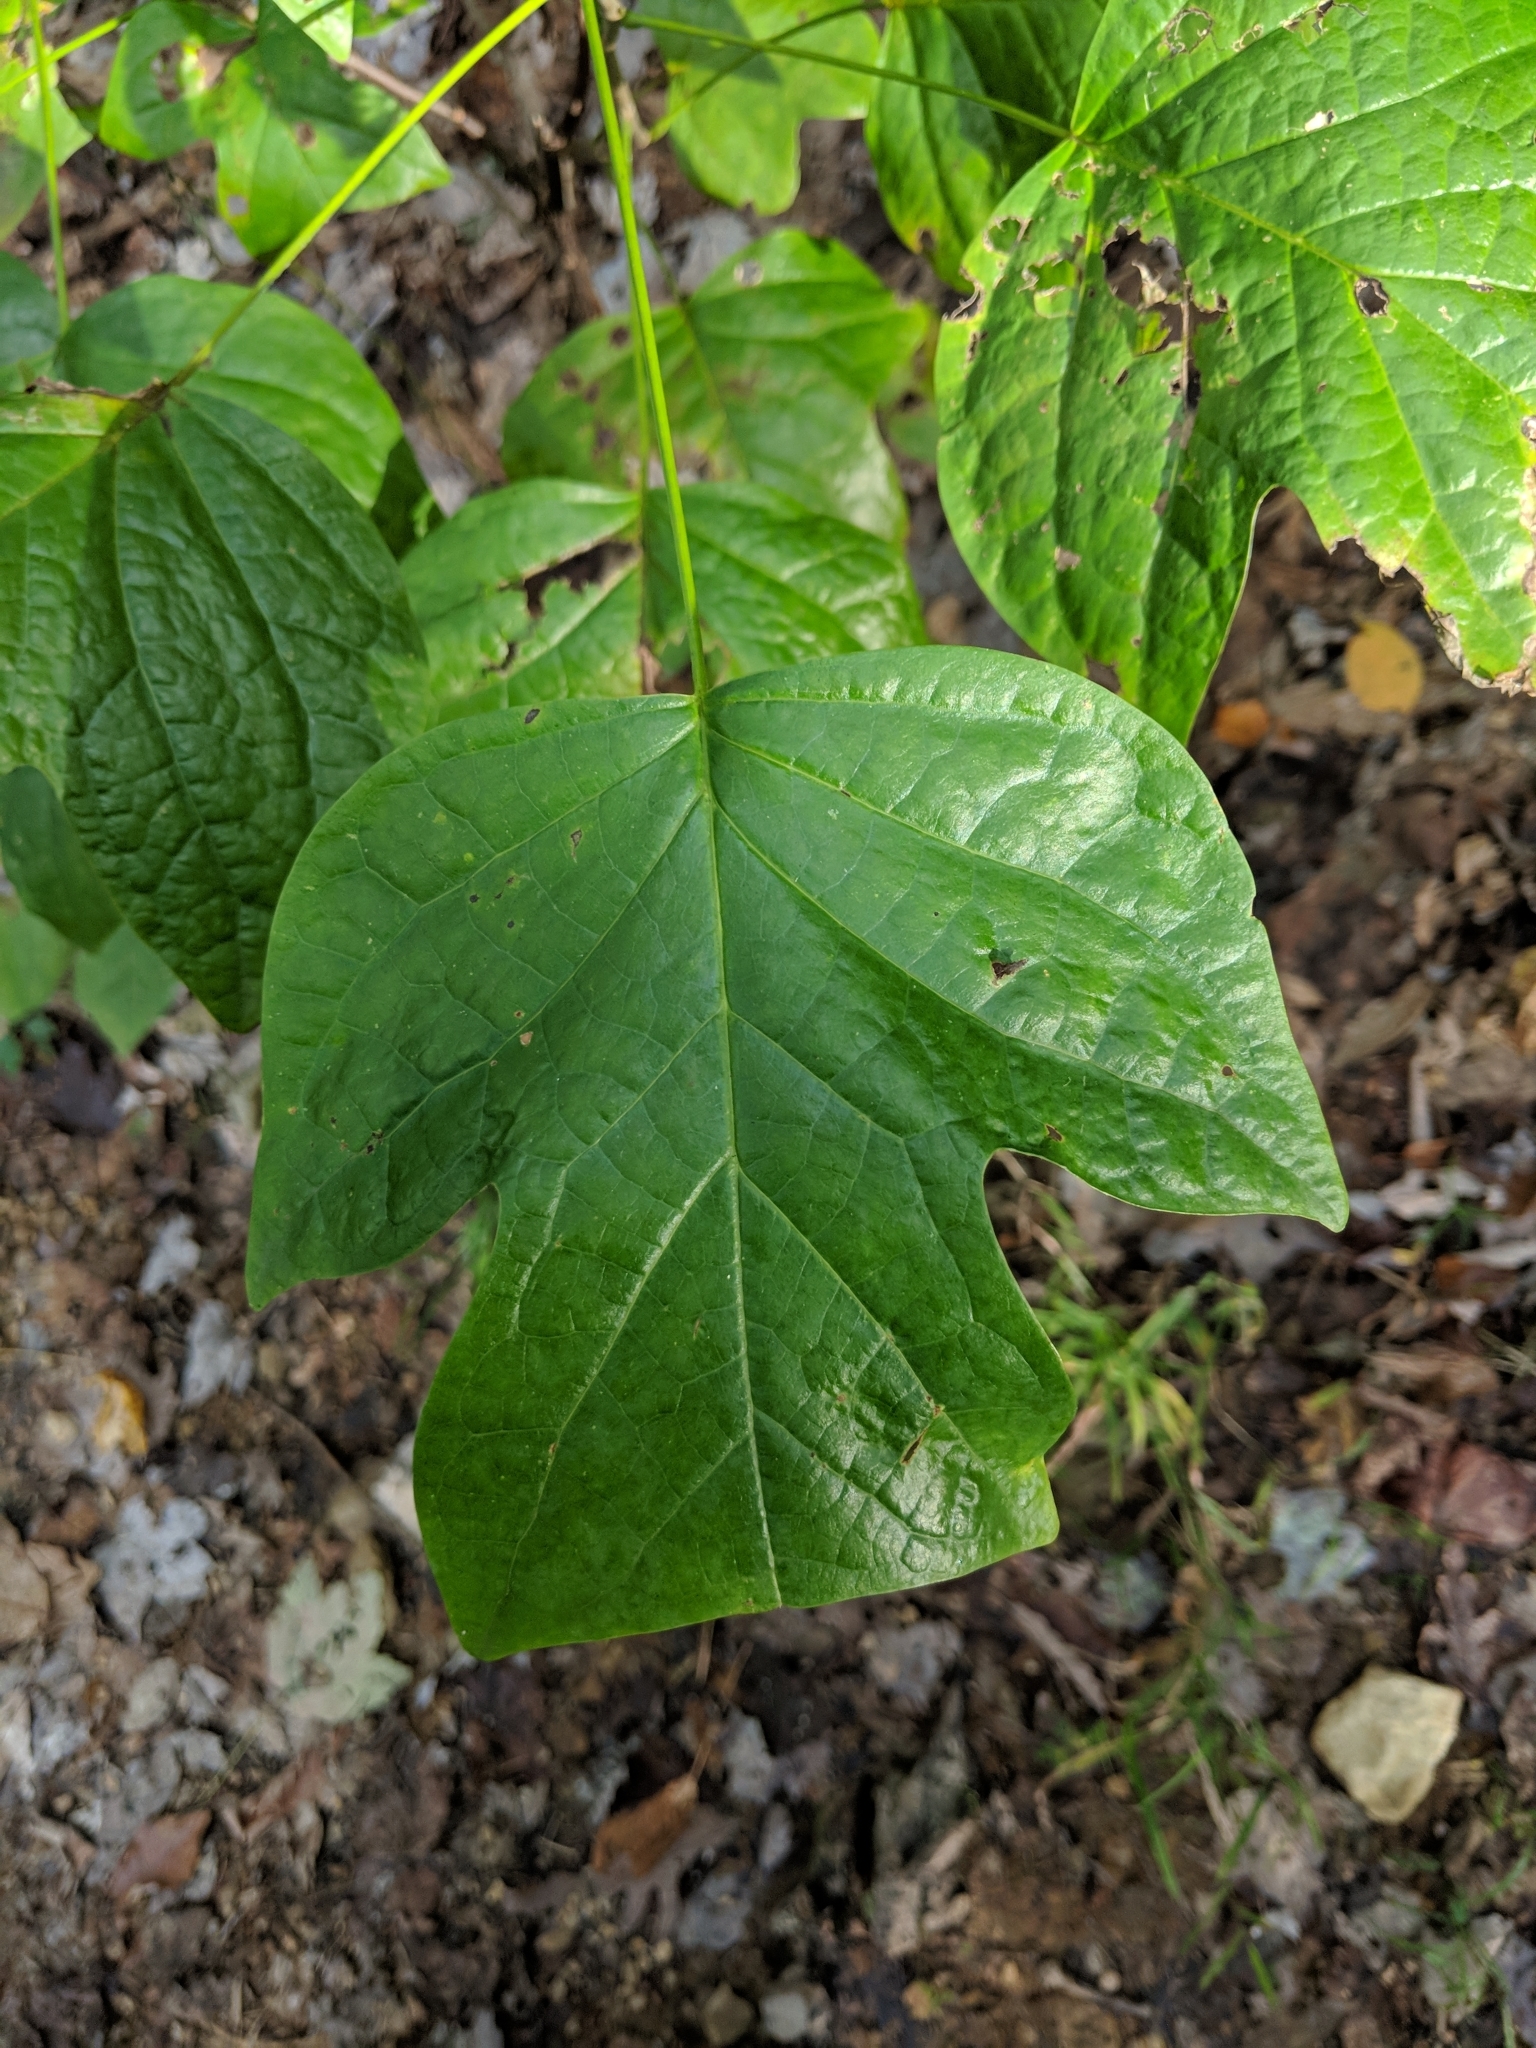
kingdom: Plantae
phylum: Tracheophyta
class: Magnoliopsida
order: Magnoliales
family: Magnoliaceae
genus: Liriodendron
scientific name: Liriodendron tulipifera
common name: Tulip tree
